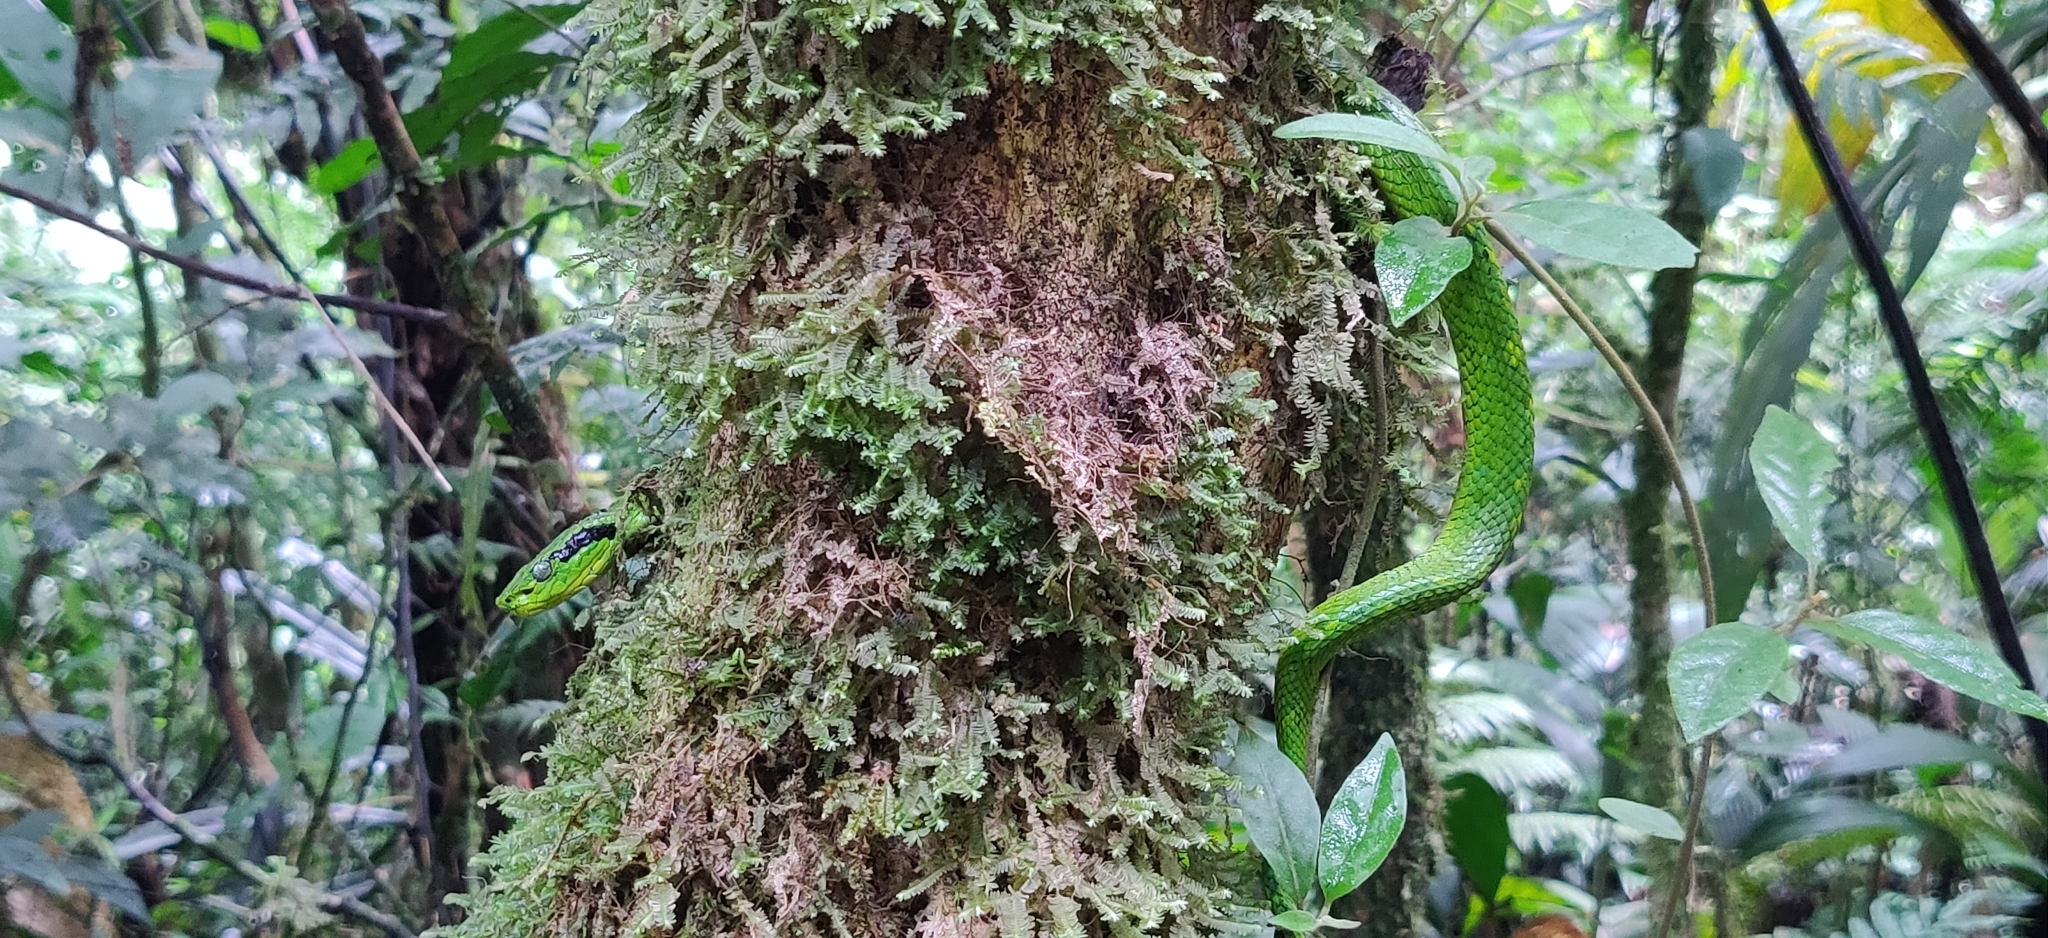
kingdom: Animalia
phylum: Chordata
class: Squamata
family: Viperidae
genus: Bothriechis
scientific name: Bothriechis aurifer
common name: Yellow-blotched palm pit viper
